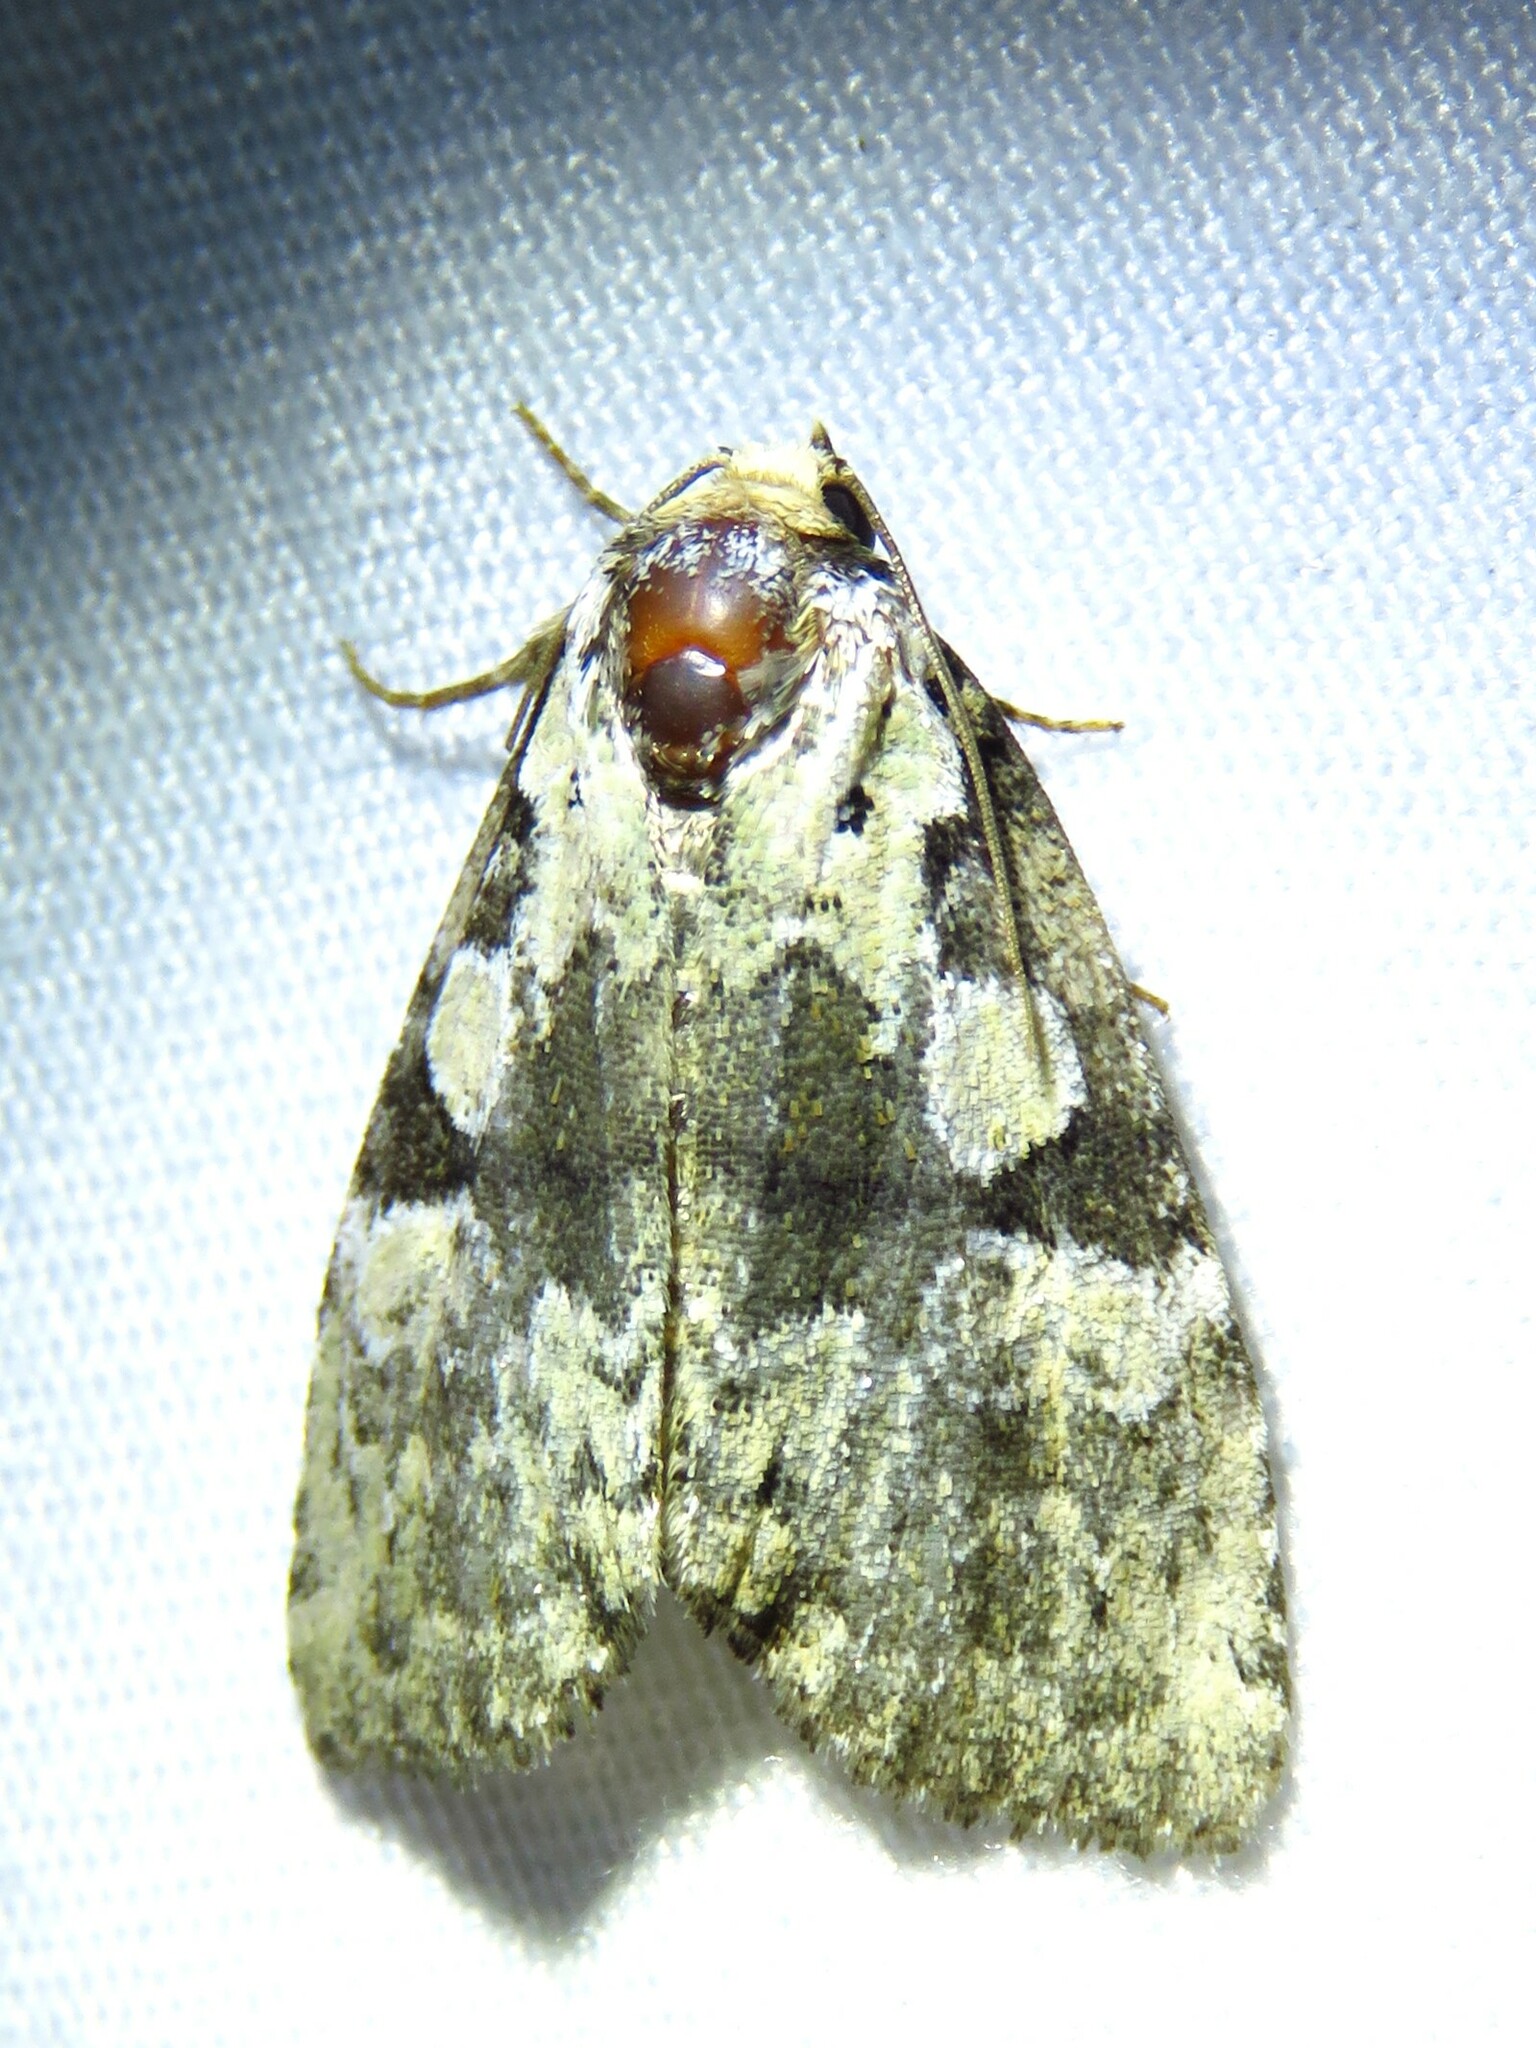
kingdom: Animalia
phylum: Arthropoda
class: Insecta
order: Lepidoptera
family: Noctuidae
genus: Leuconycta
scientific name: Leuconycta lepidula
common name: Marbled-green leuconycta moth
